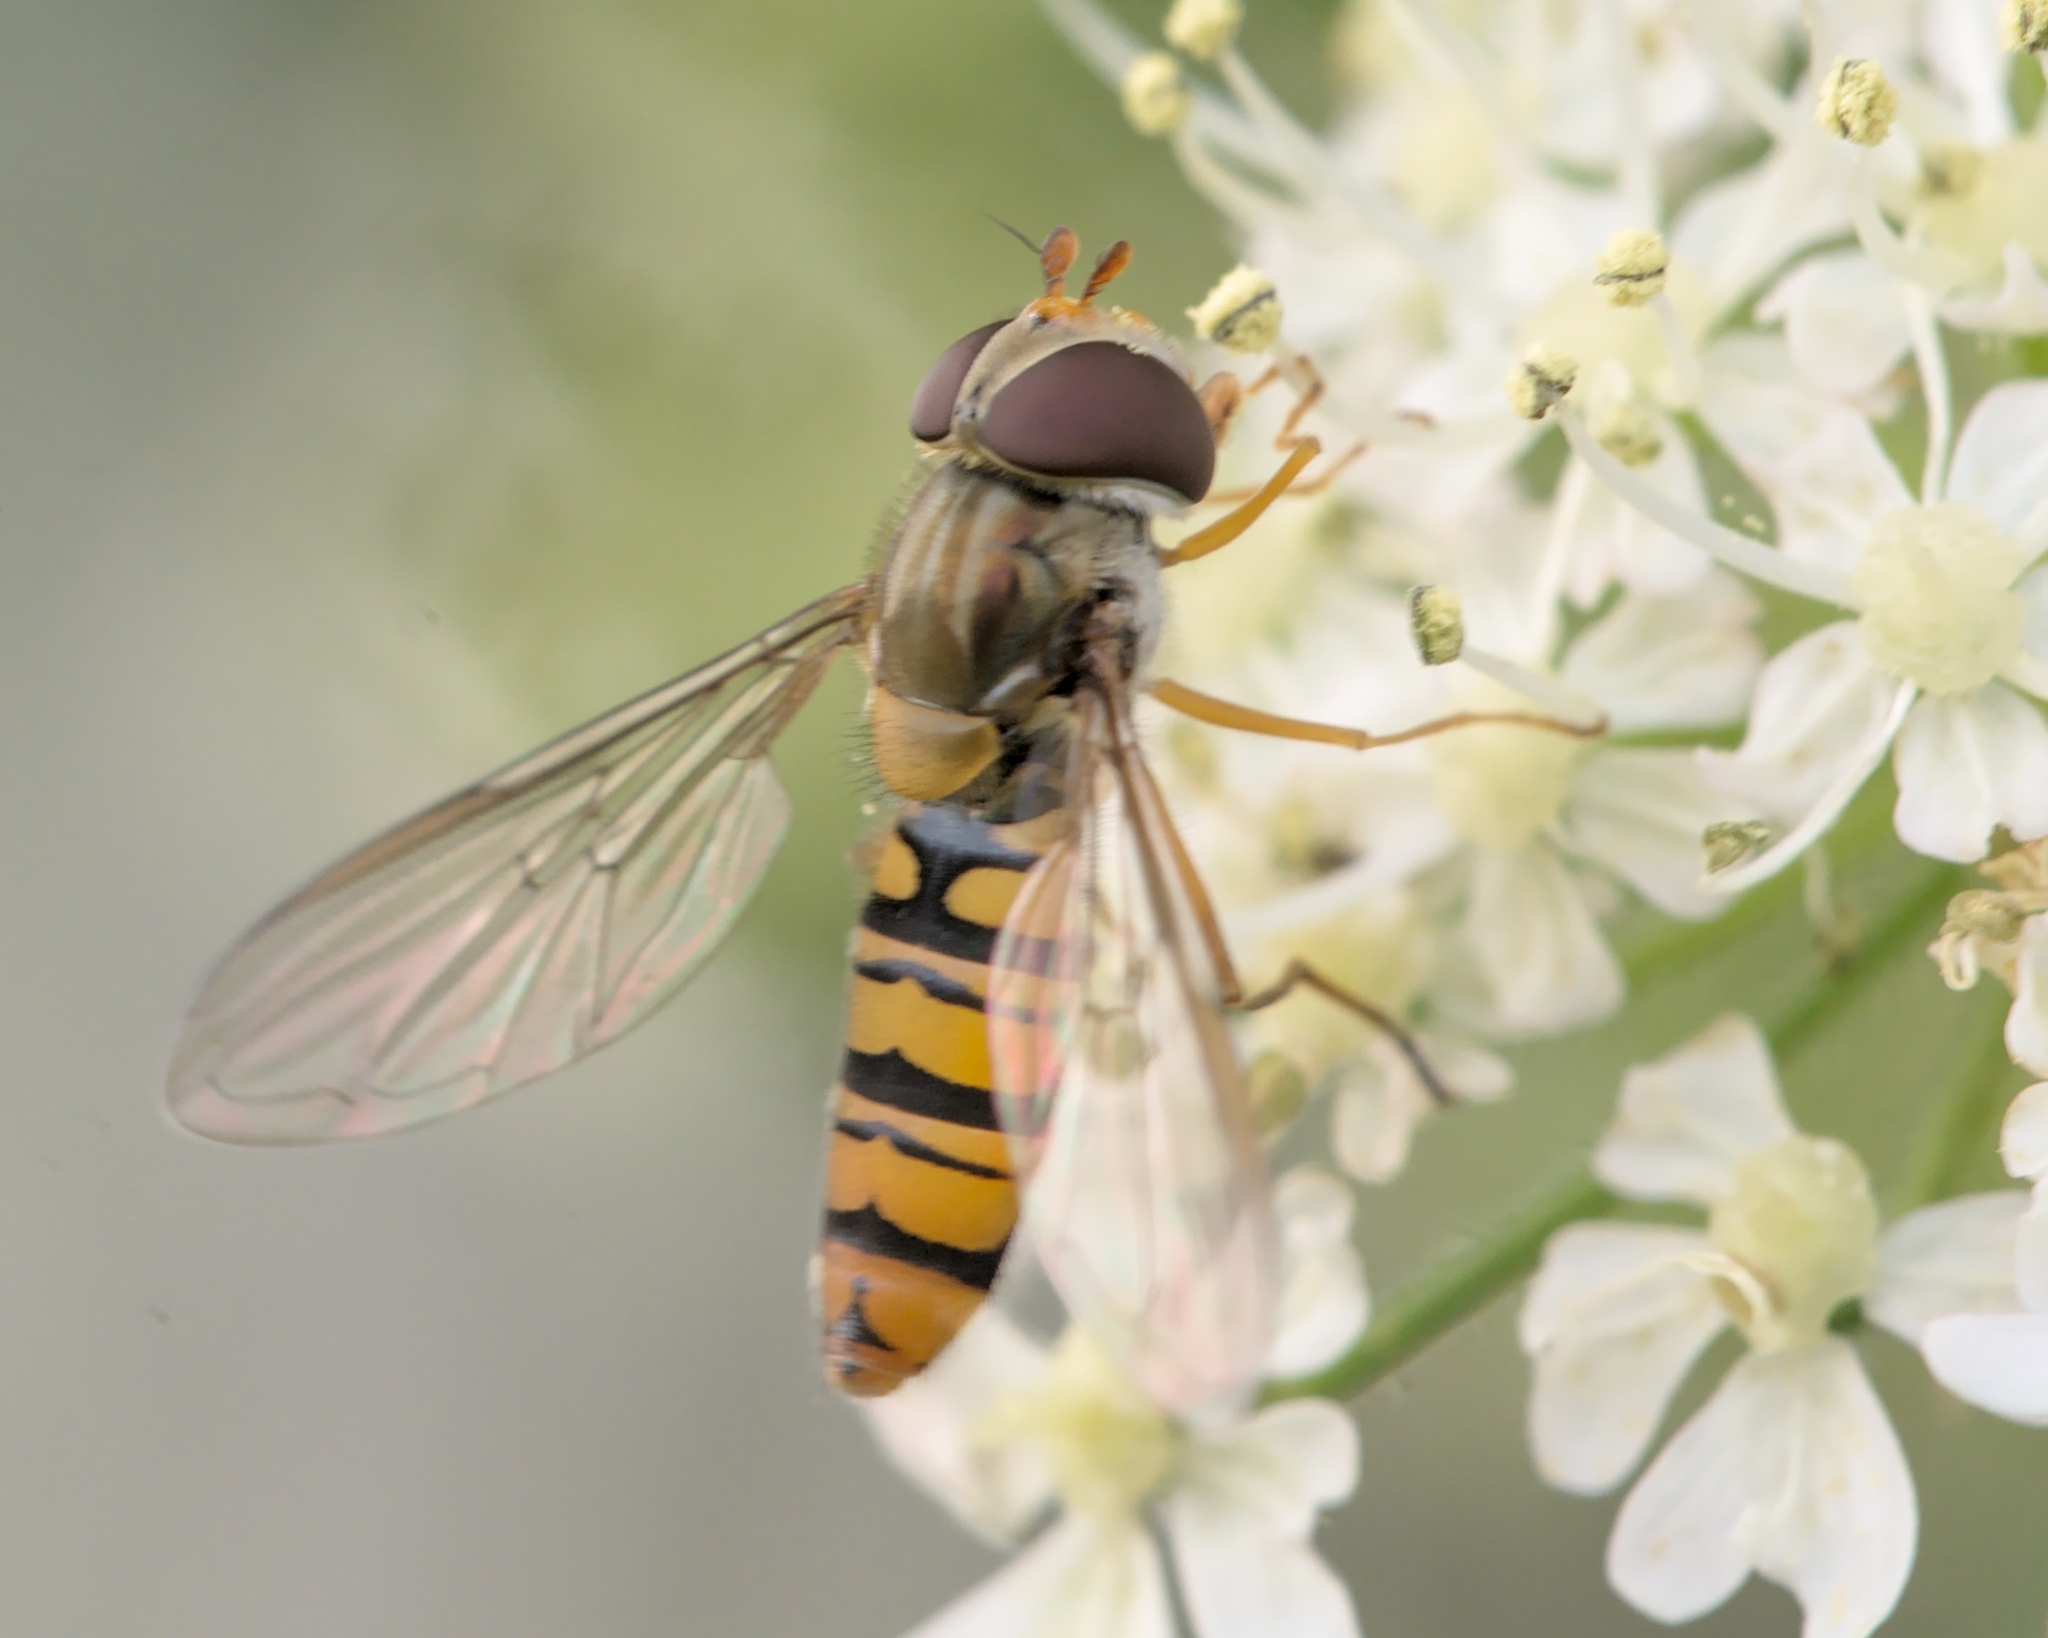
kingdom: Animalia
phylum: Arthropoda
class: Insecta
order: Diptera
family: Syrphidae
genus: Episyrphus
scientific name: Episyrphus balteatus
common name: Marmalade hoverfly
